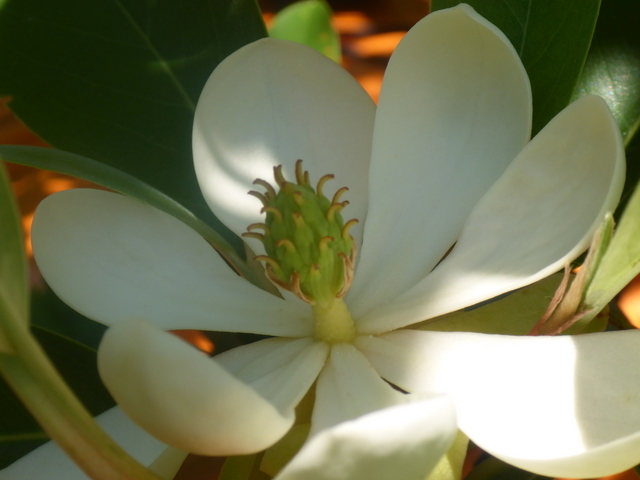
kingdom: Plantae
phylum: Tracheophyta
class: Magnoliopsida
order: Magnoliales
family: Magnoliaceae
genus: Magnolia
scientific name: Magnolia virginiana
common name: Swamp bay
